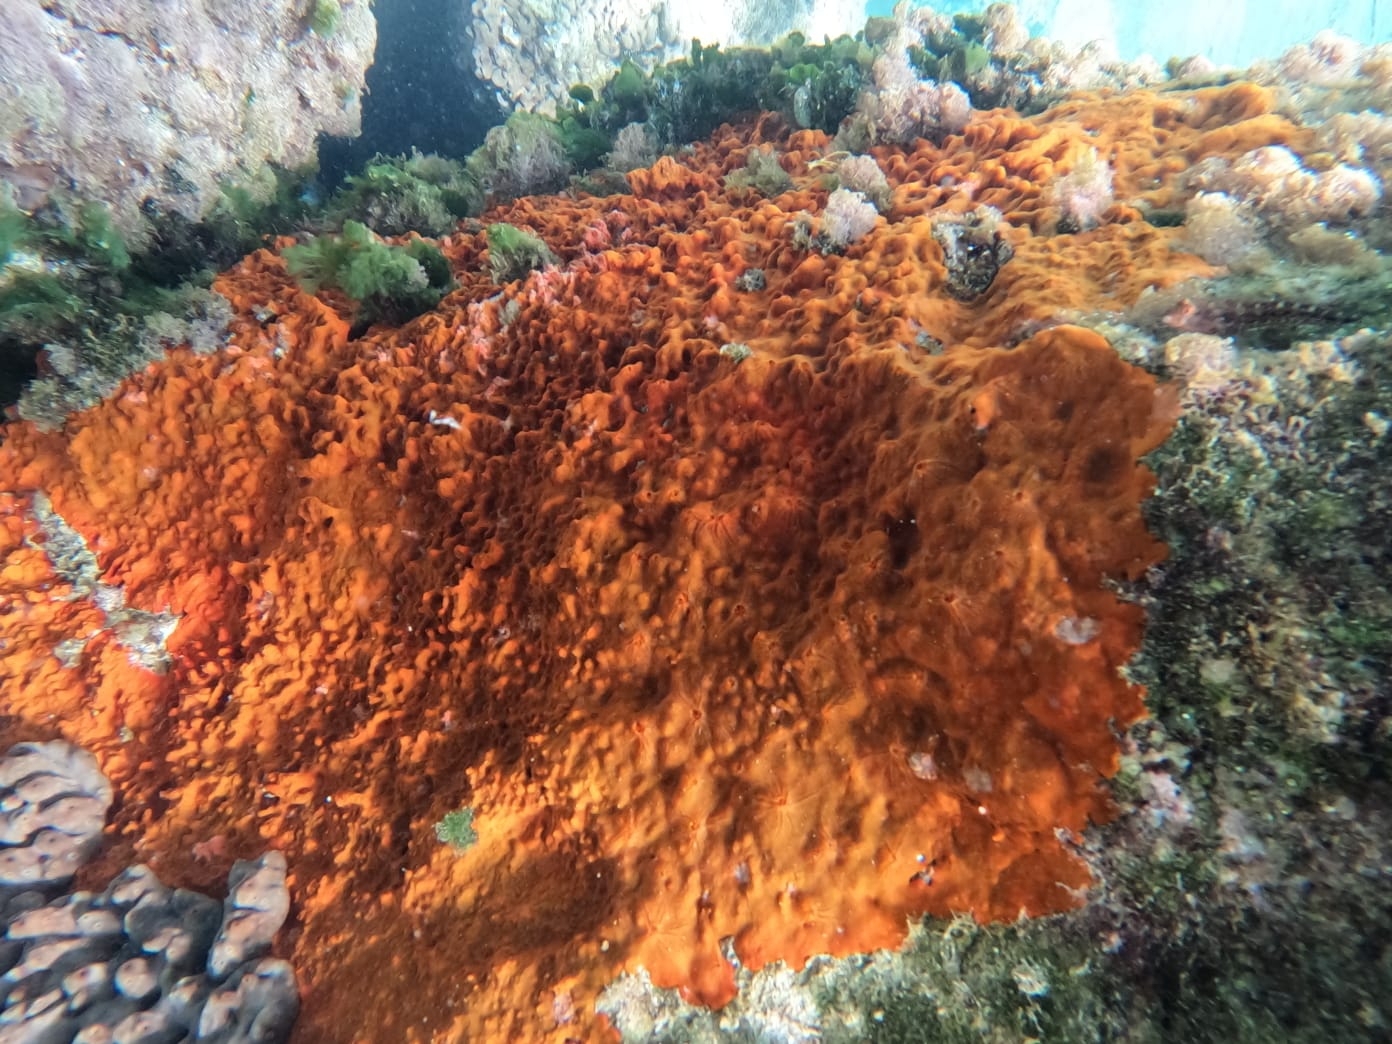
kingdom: Animalia
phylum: Porifera
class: Demospongiae
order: Poecilosclerida
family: Crambeidae
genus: Crambe
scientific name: Crambe crambe
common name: Orange-red encrusting sponge
